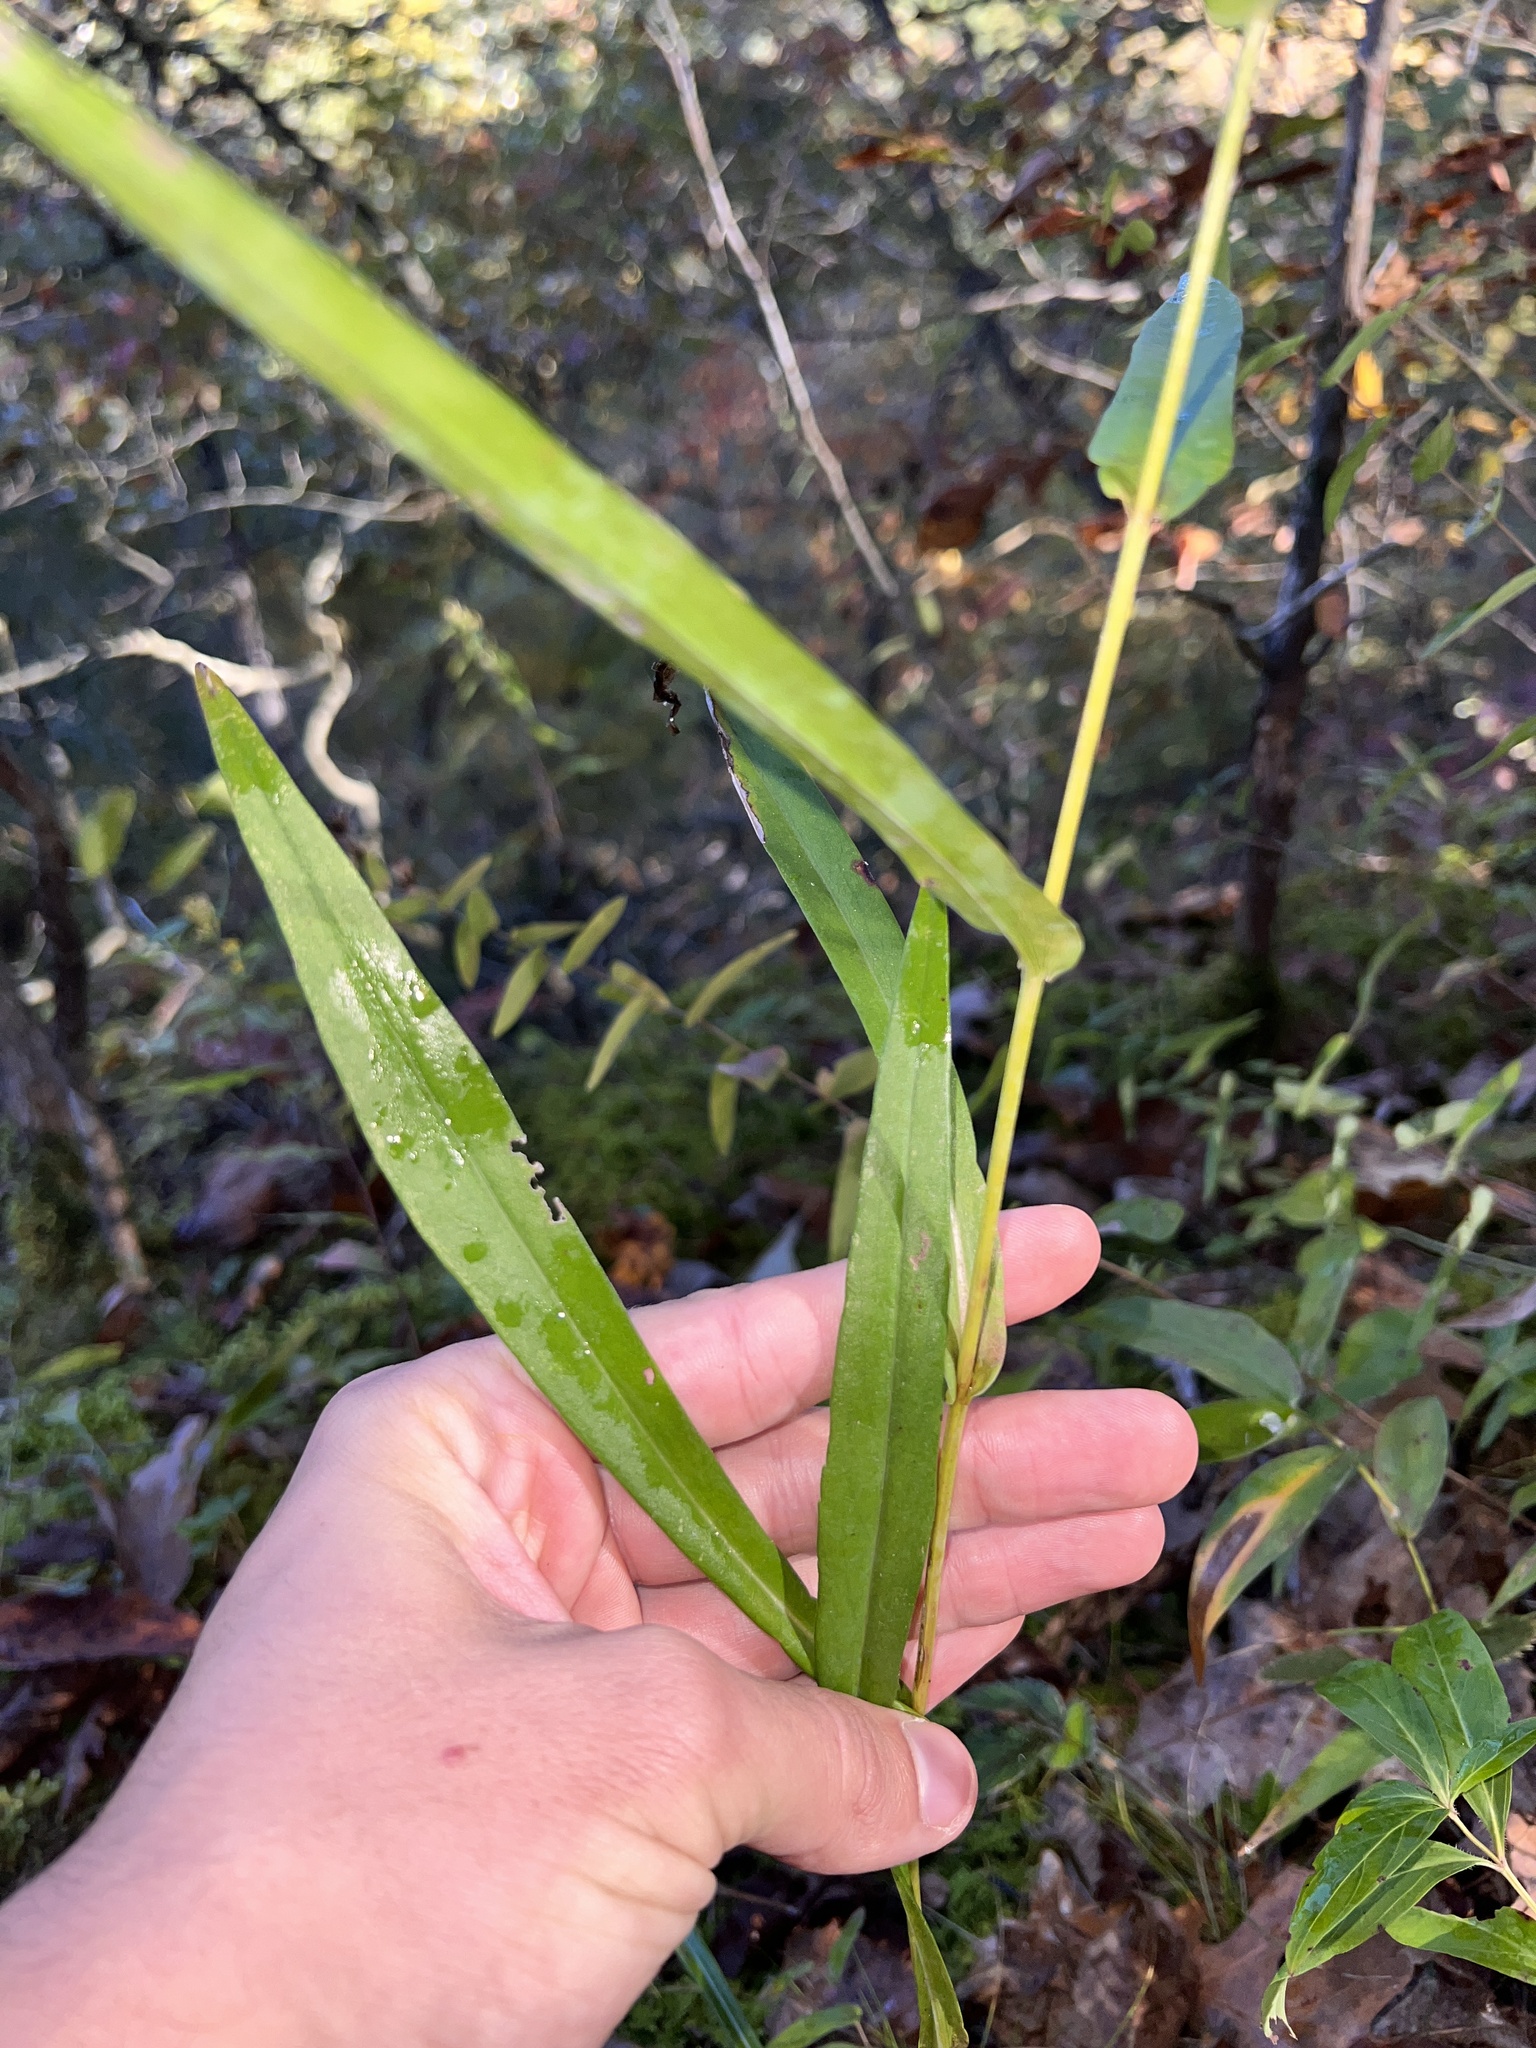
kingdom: Plantae
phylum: Tracheophyta
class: Magnoliopsida
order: Asterales
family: Asteraceae
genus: Symphyotrichum
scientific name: Symphyotrichum laeve
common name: Glaucous aster
